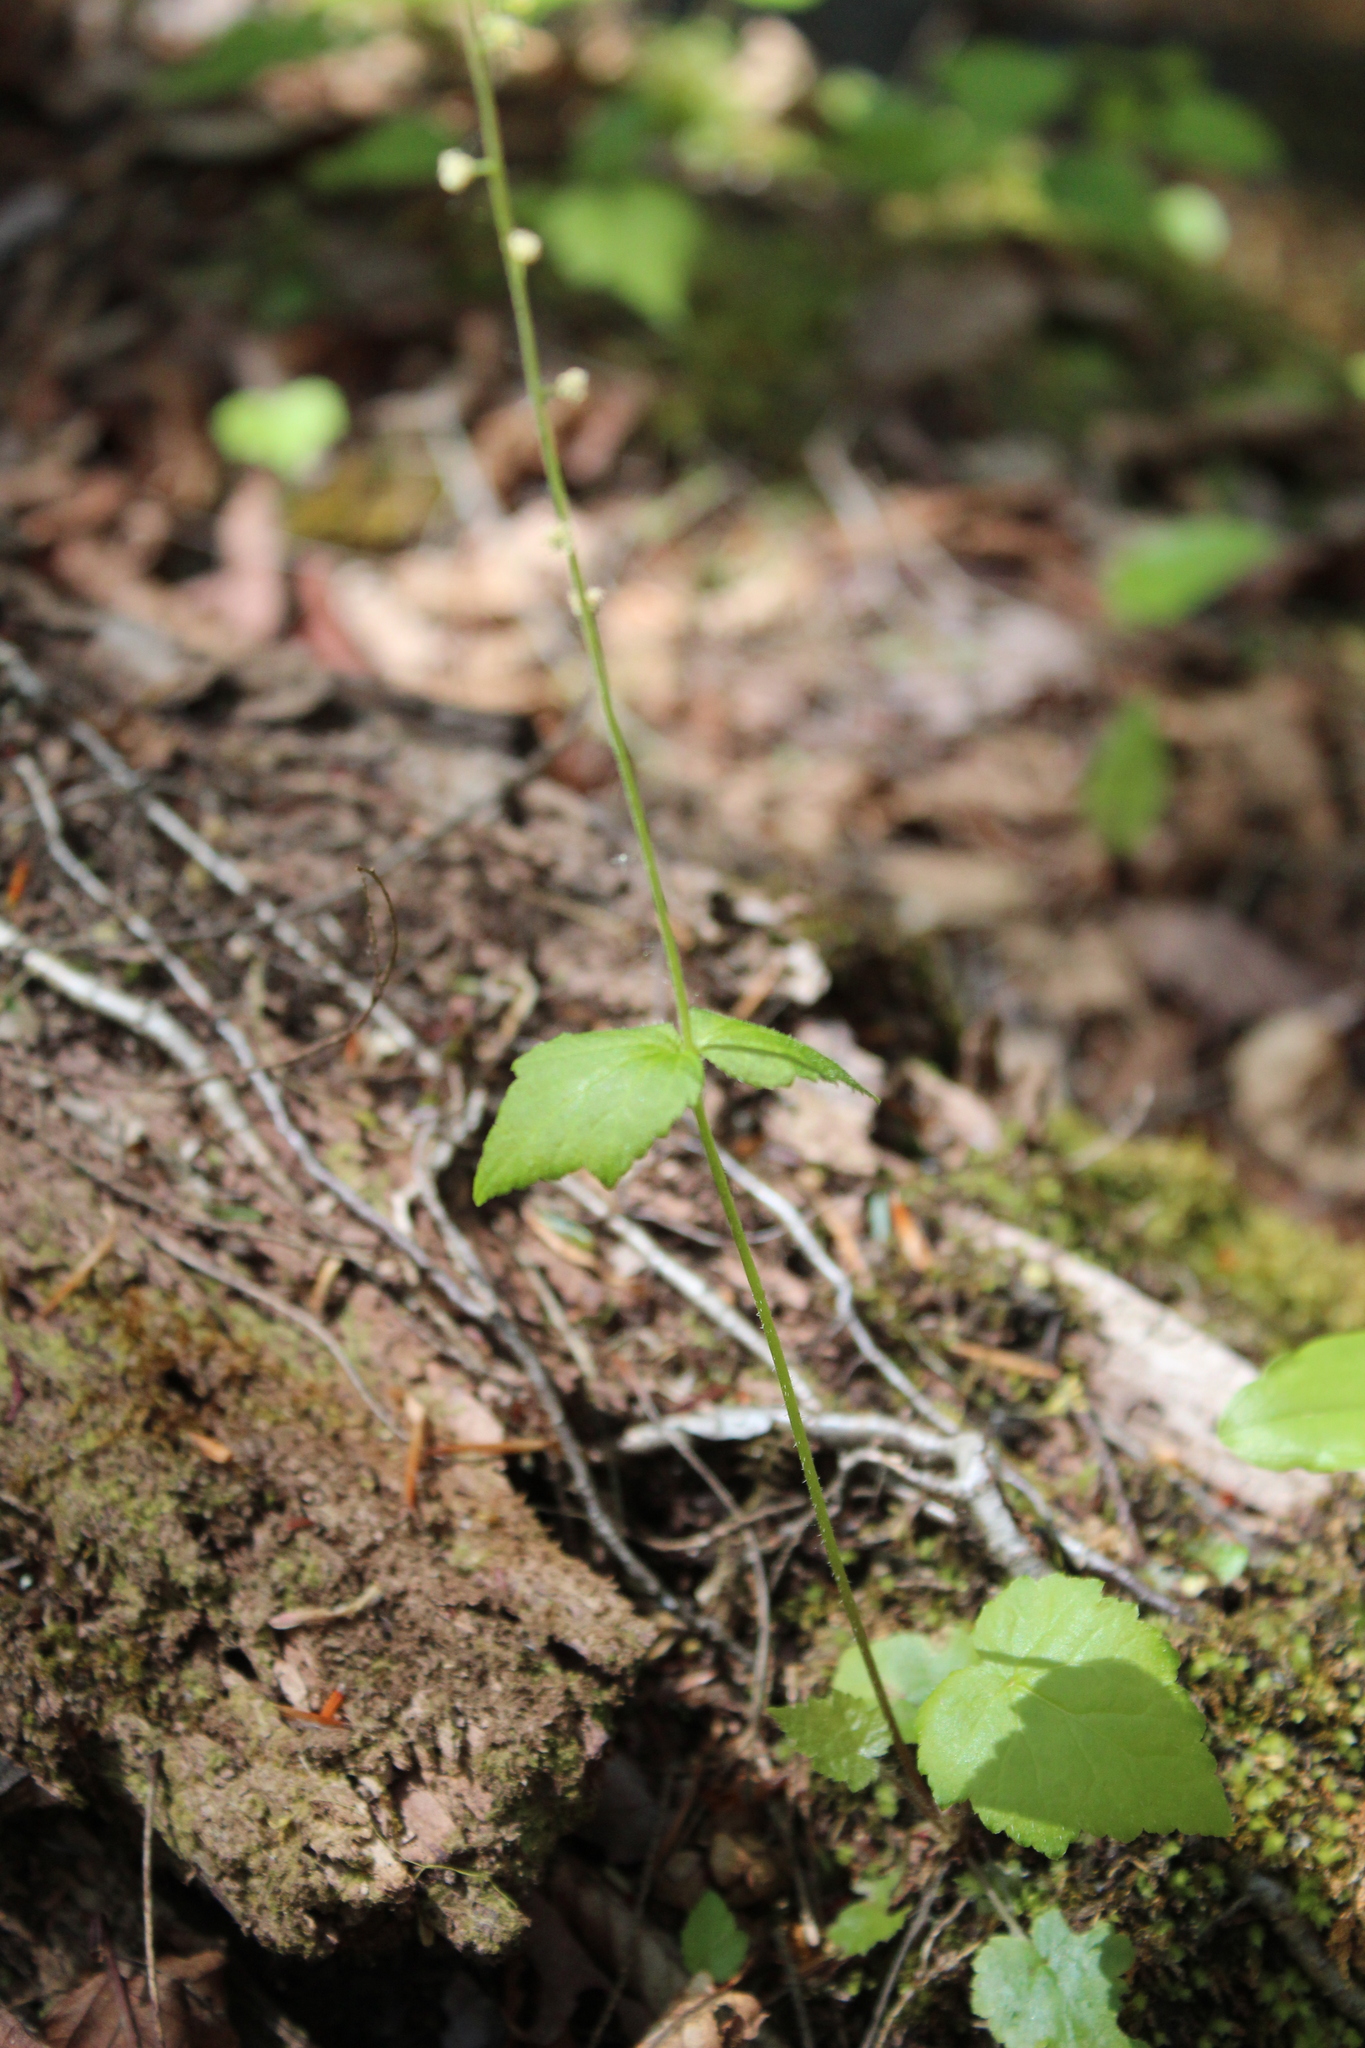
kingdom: Plantae
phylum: Tracheophyta
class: Magnoliopsida
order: Saxifragales
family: Saxifragaceae
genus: Mitella
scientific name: Mitella diphylla
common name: Coolwort
